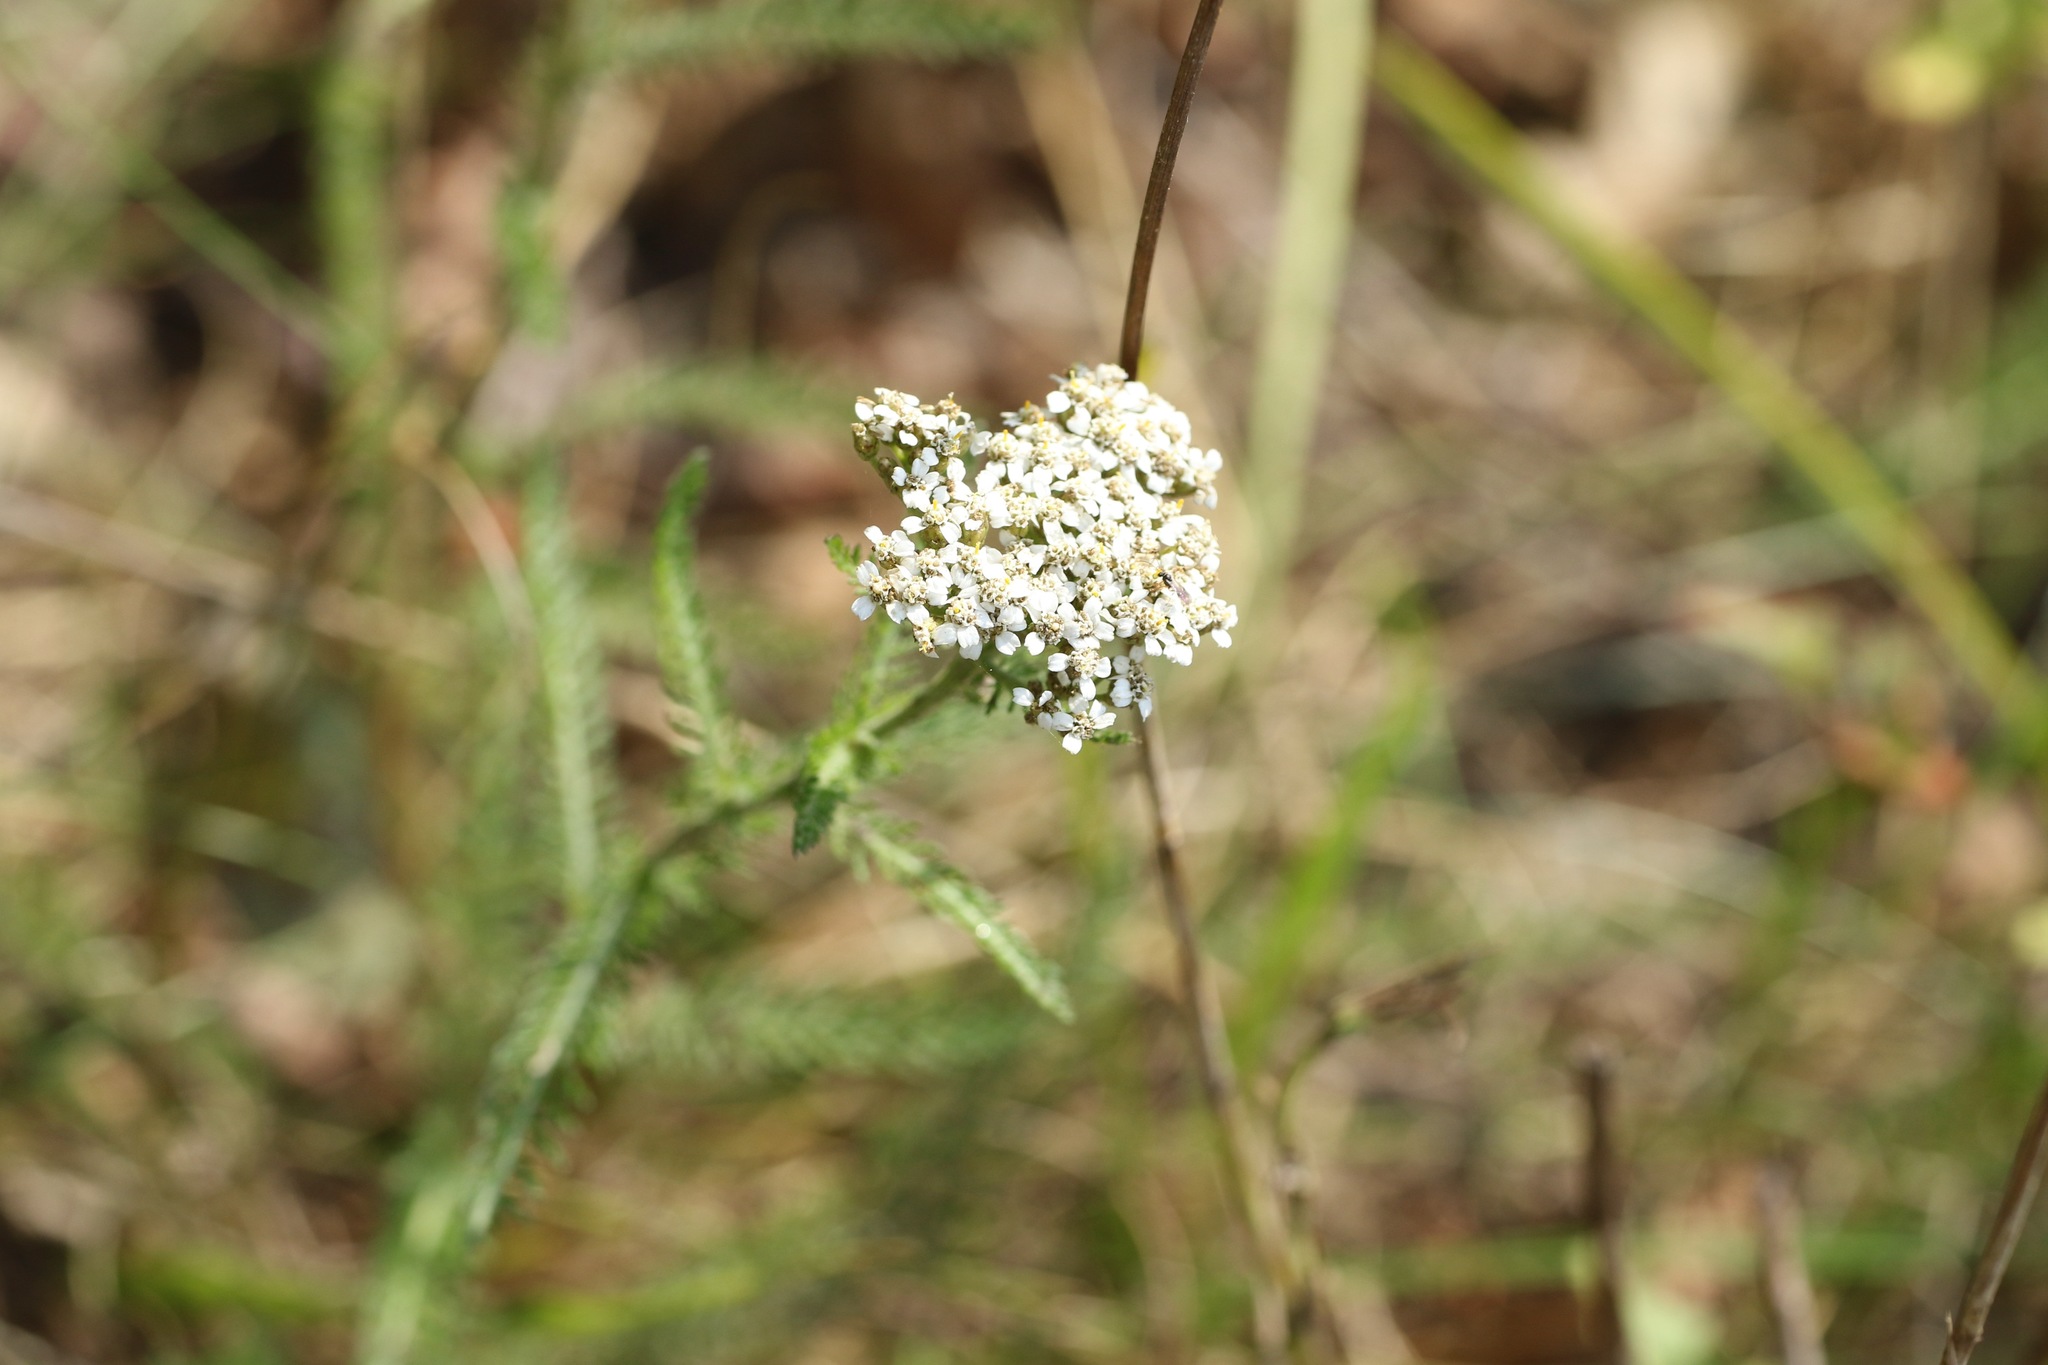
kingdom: Plantae
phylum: Tracheophyta
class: Magnoliopsida
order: Asterales
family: Asteraceae
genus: Achillea
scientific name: Achillea millefolium
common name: Yarrow
